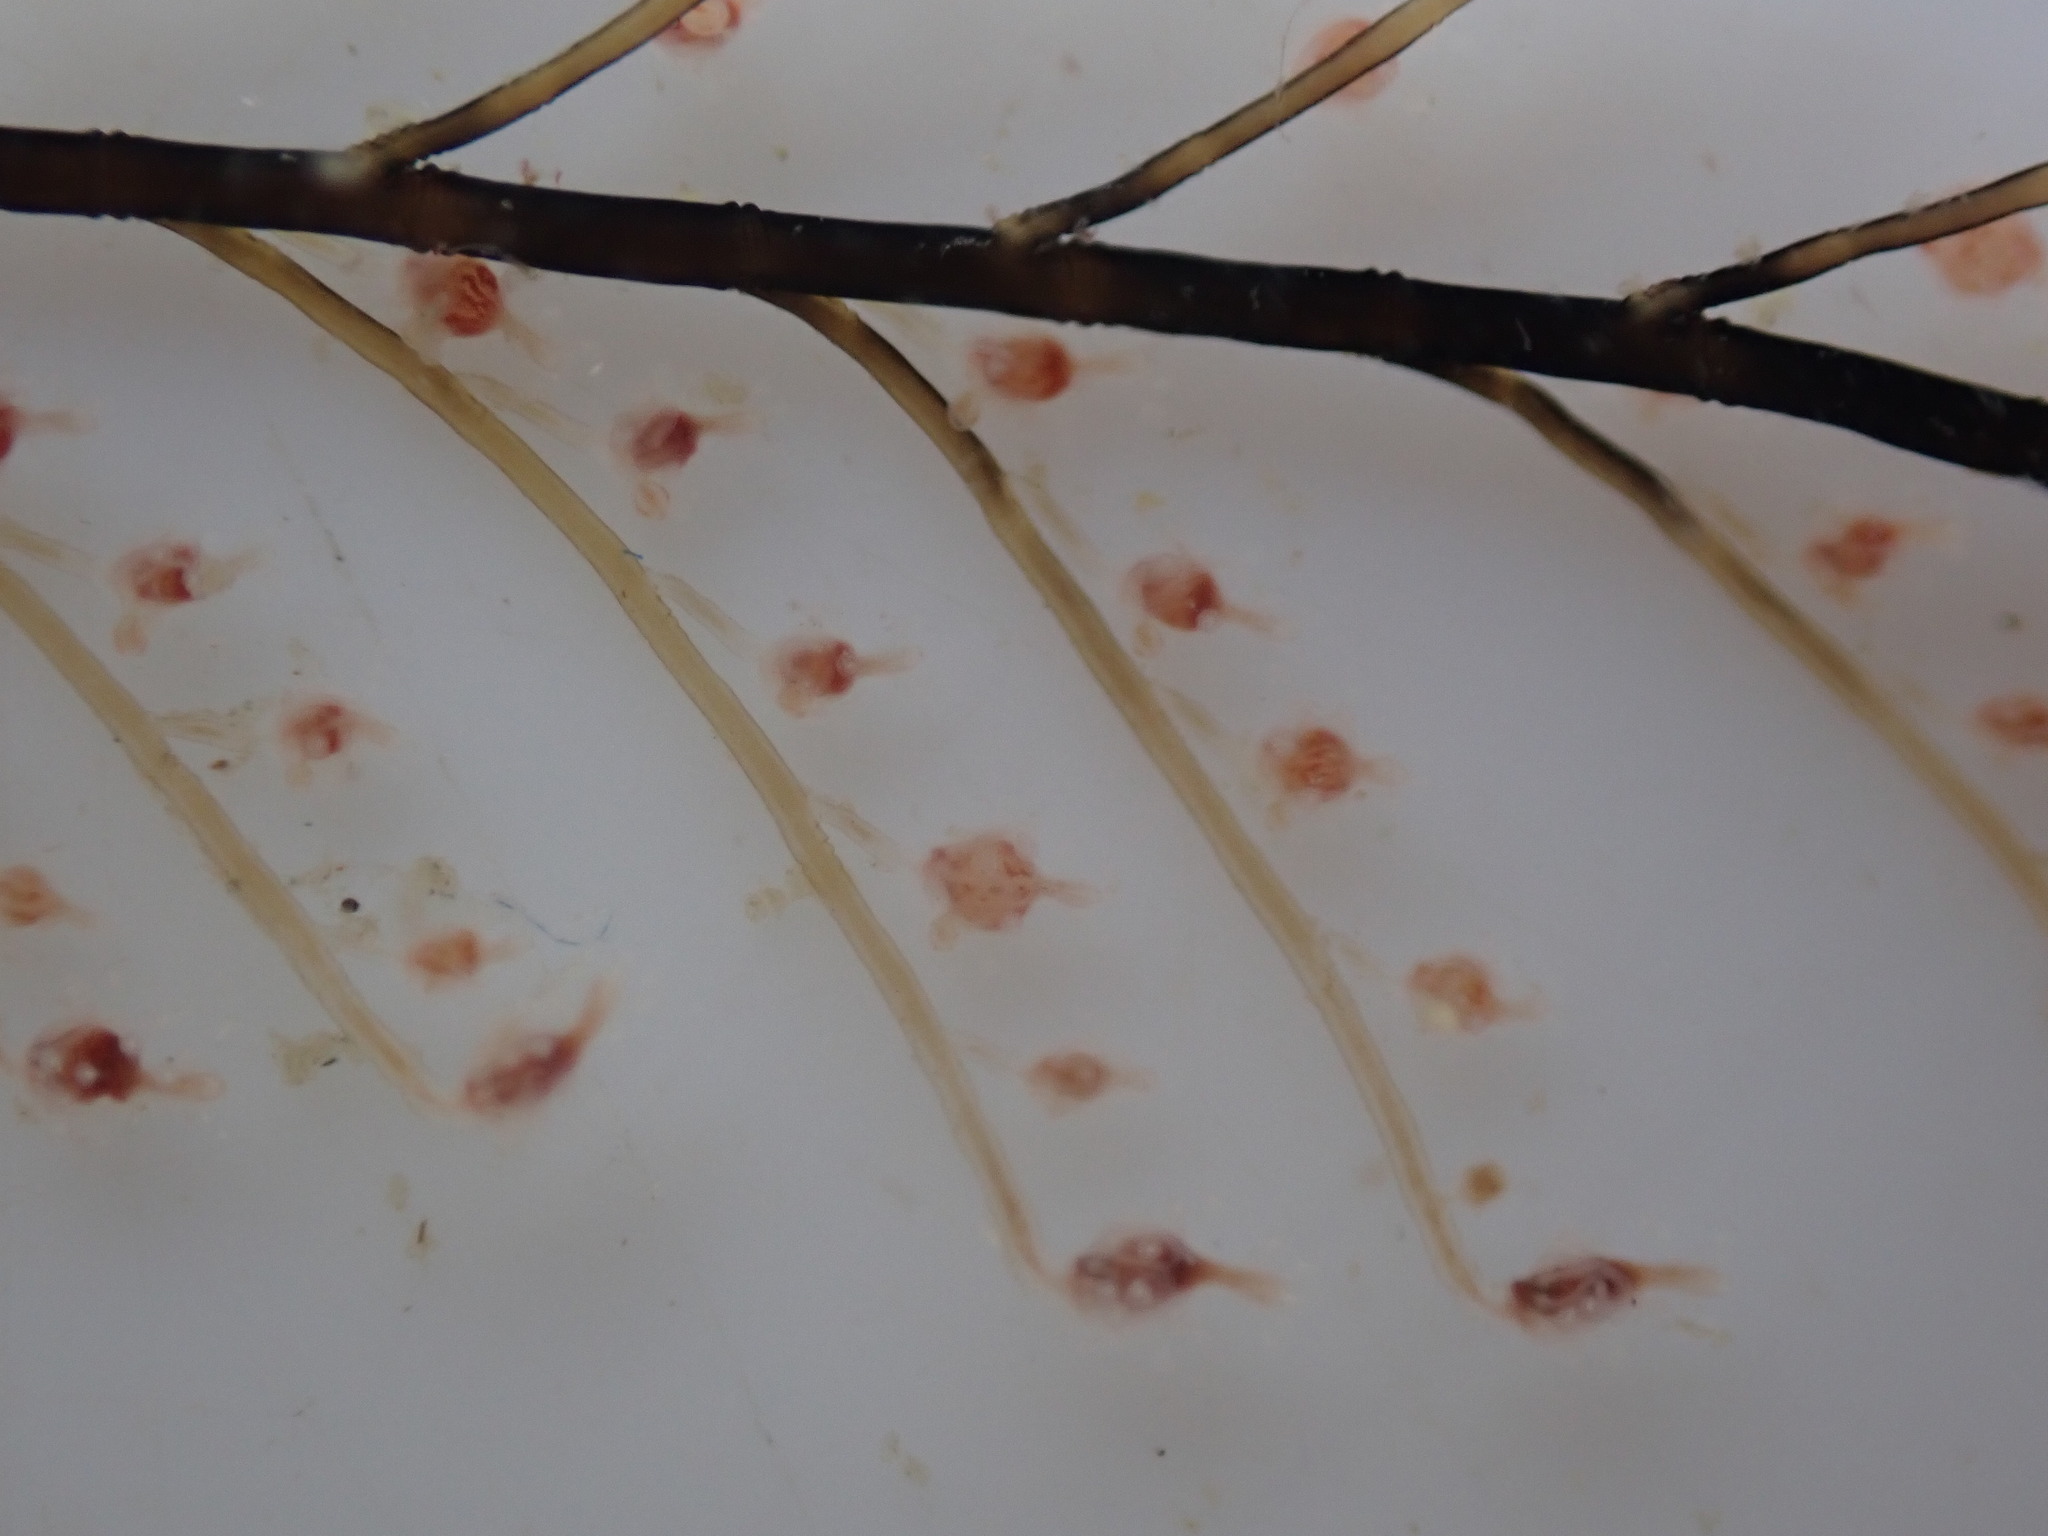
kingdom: Animalia
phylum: Cnidaria
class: Hydrozoa
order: Anthoathecata
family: Pennariidae
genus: Pennaria
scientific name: Pennaria disticha
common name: Feather hydroid
